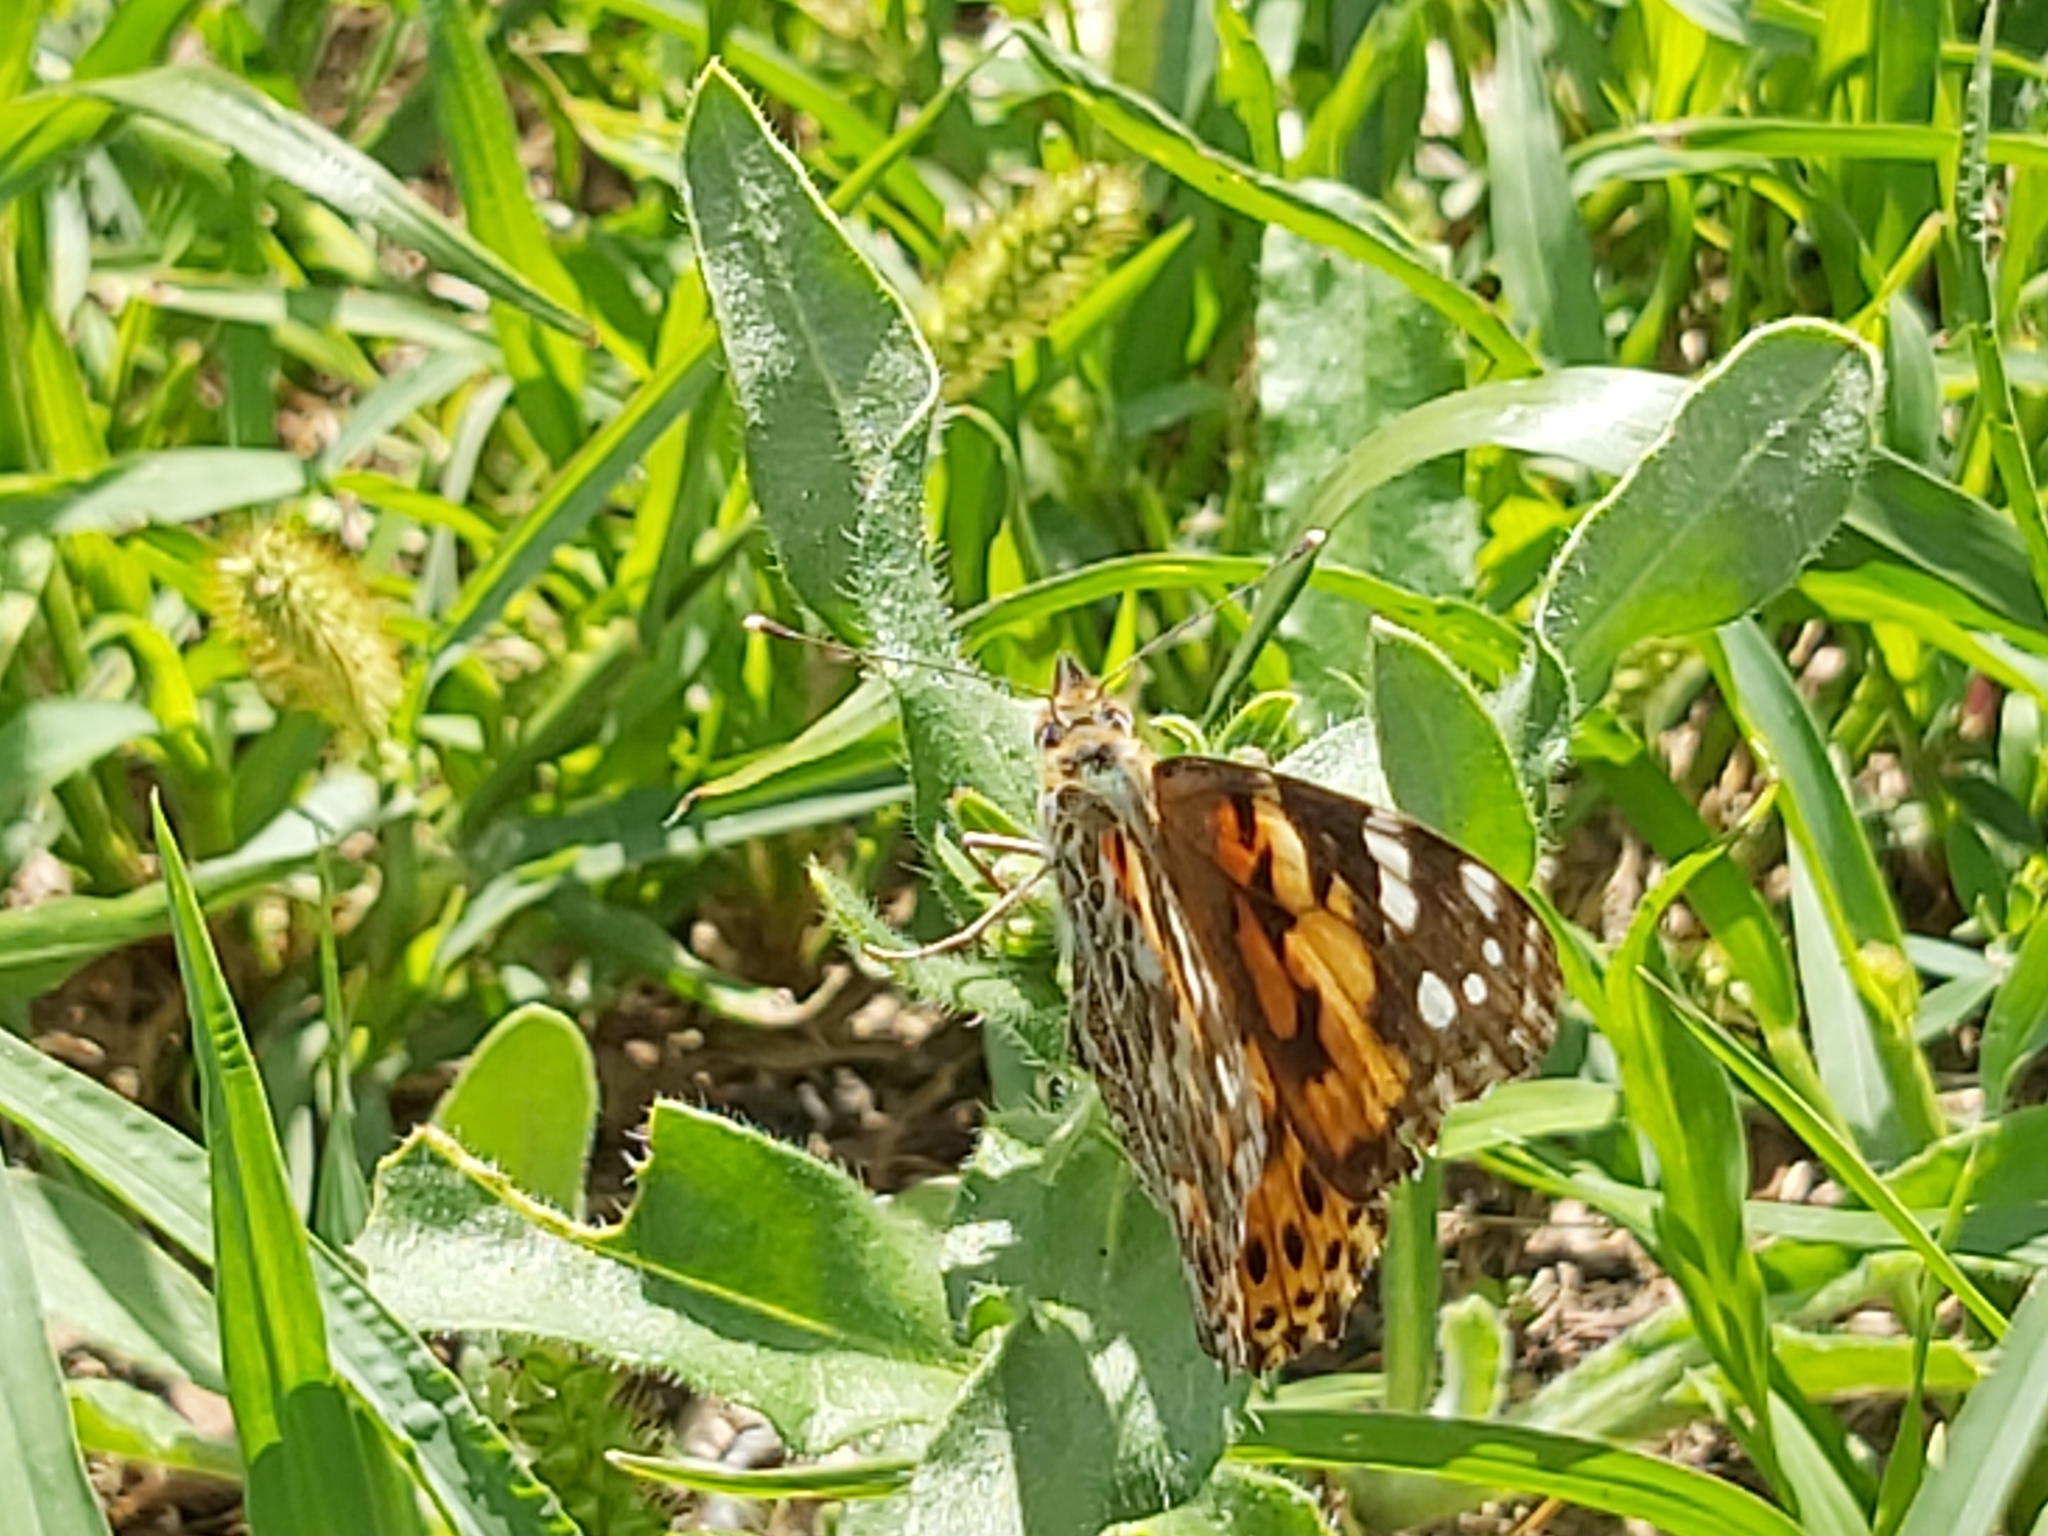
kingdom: Animalia
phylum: Arthropoda
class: Insecta
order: Lepidoptera
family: Nymphalidae
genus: Vanessa
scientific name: Vanessa cardui
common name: Painted lady
